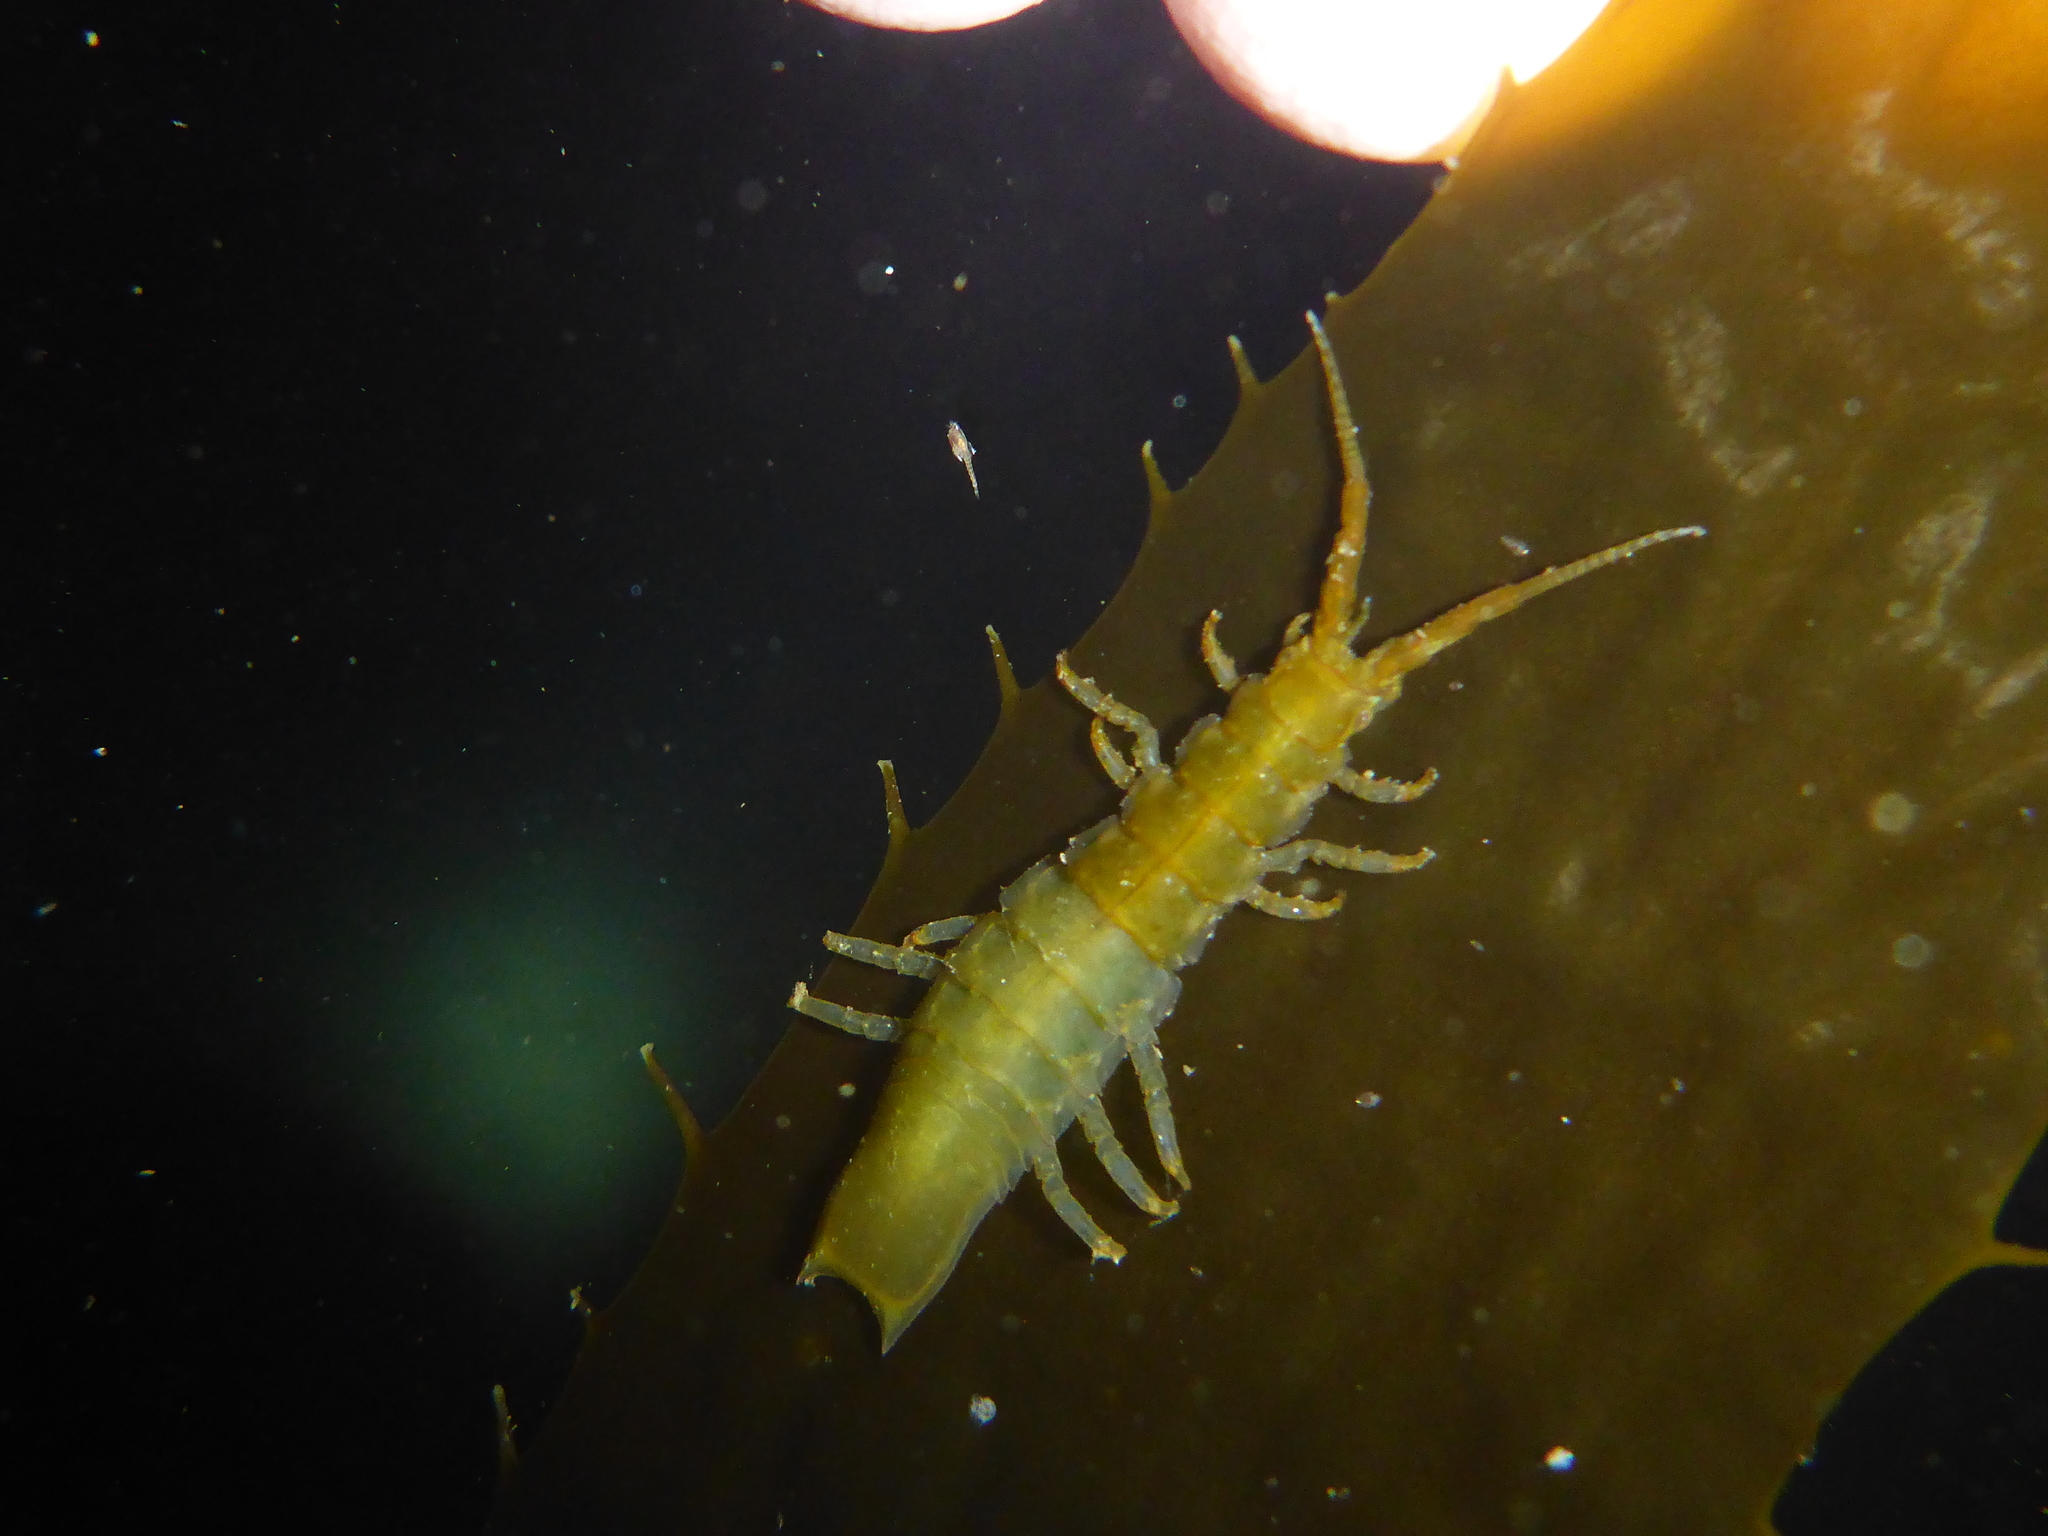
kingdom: Animalia
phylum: Arthropoda
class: Malacostraca
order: Isopoda
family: Idoteidae
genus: Pentidotea
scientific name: Pentidotea resecata
